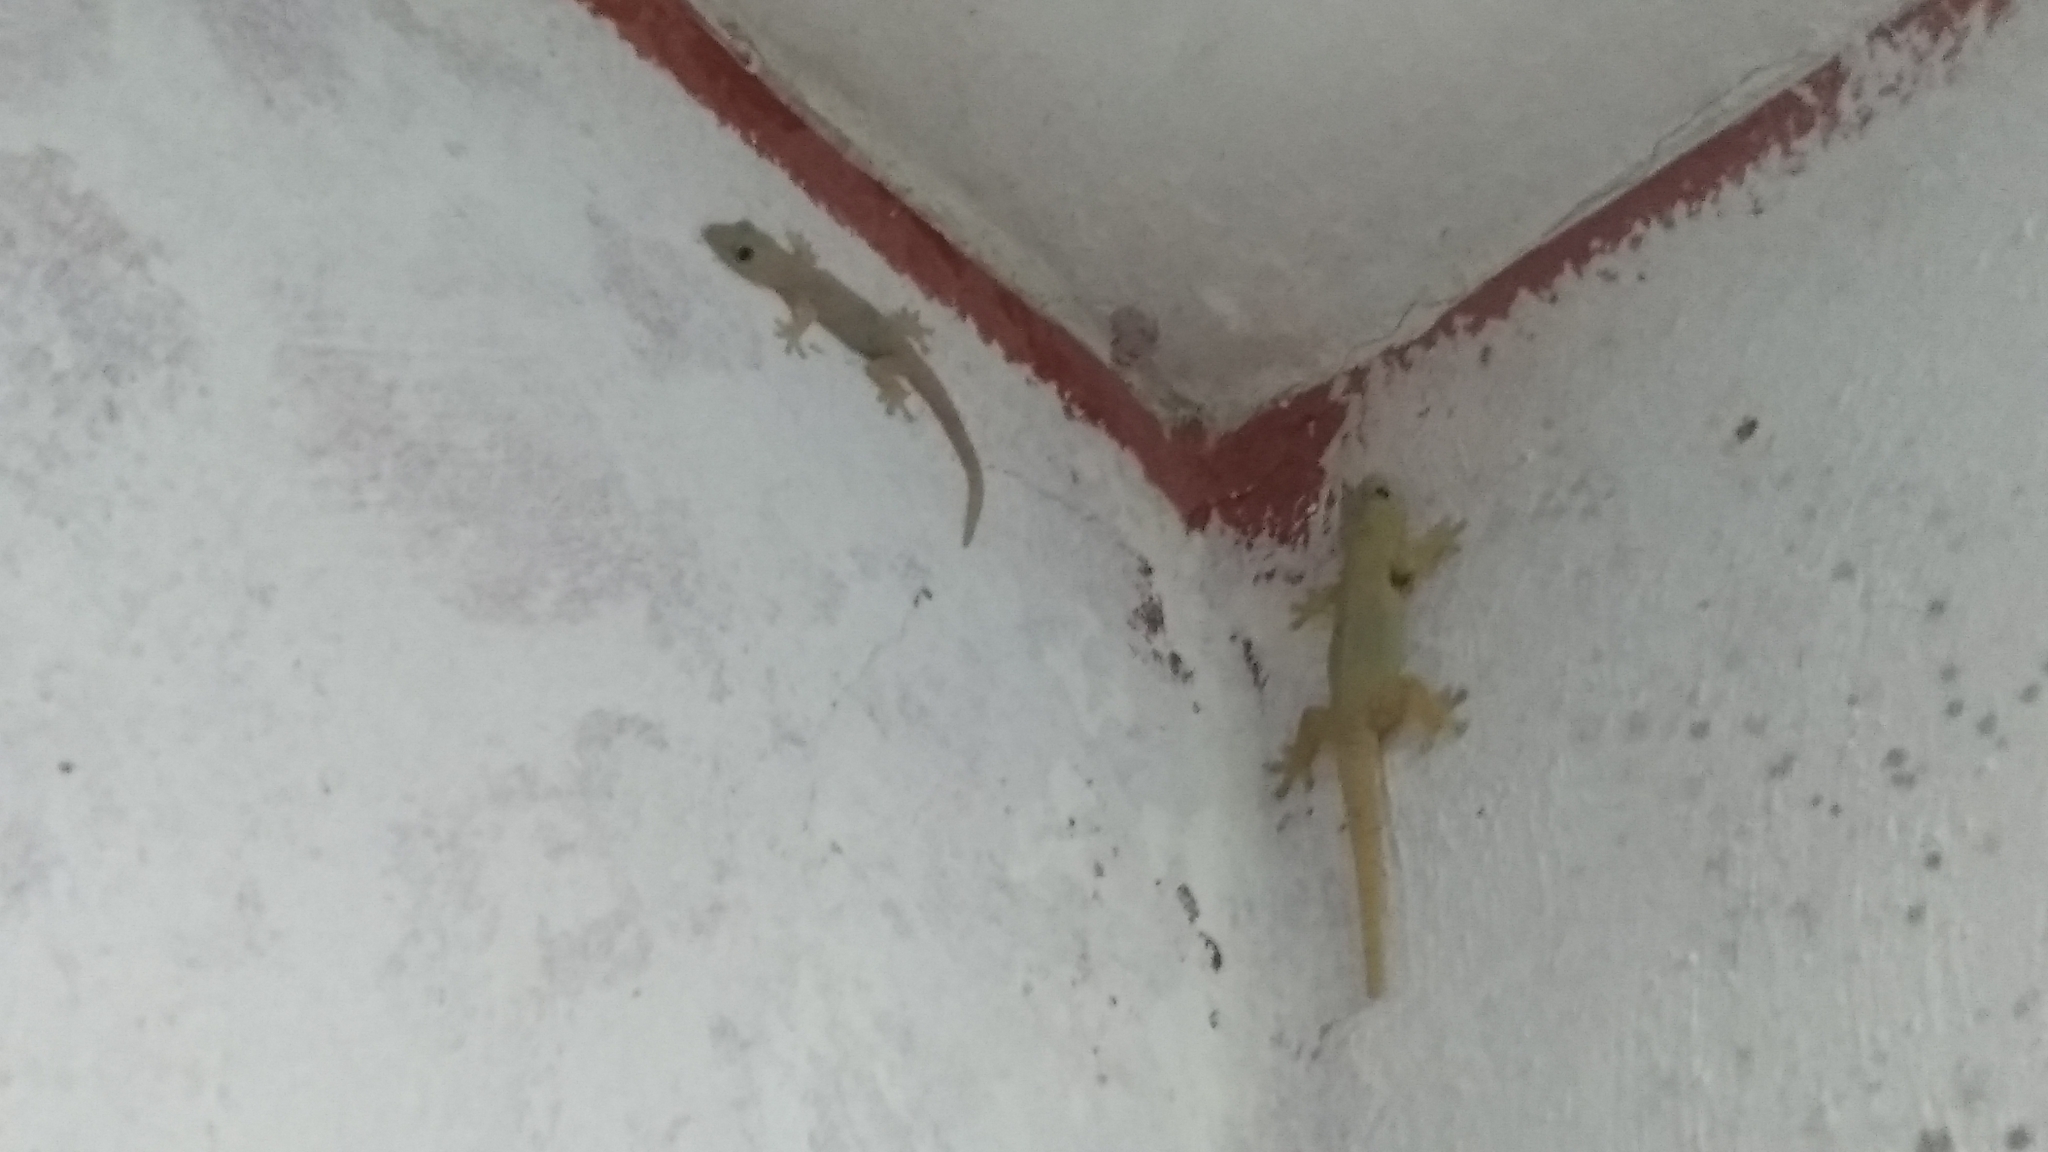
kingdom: Animalia
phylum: Chordata
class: Squamata
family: Gekkonidae
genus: Hemidactylus
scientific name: Hemidactylus frenatus
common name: Common house gecko
